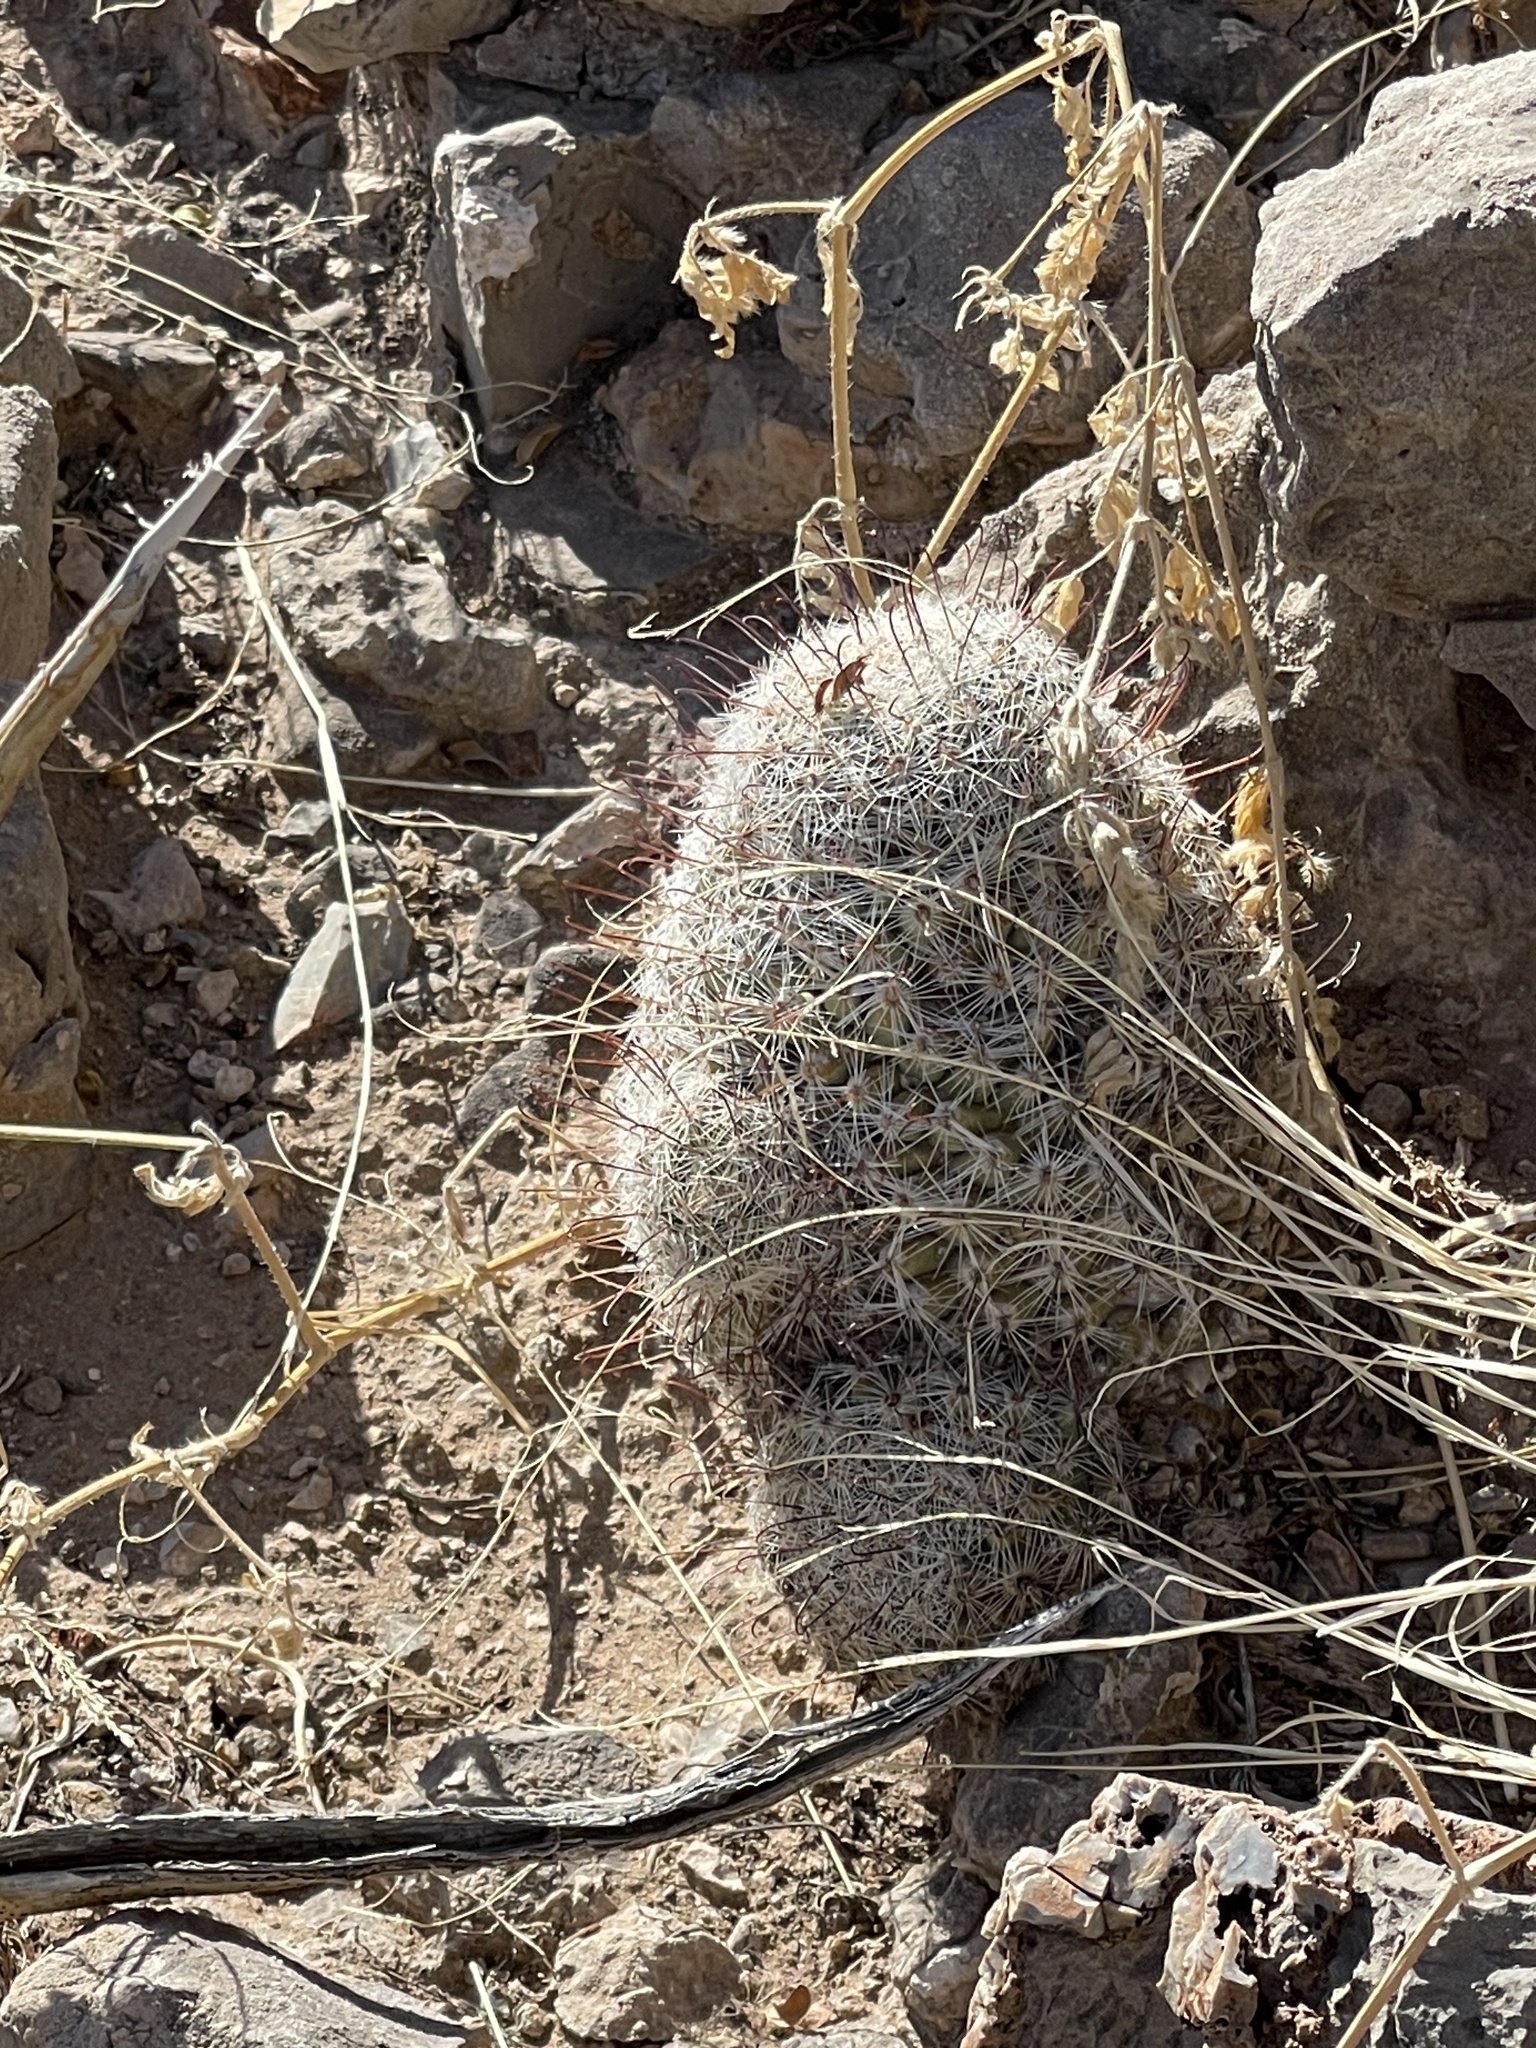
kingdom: Plantae
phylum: Tracheophyta
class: Magnoliopsida
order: Caryophyllales
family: Cactaceae
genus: Cochemiea
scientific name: Cochemiea grahamii
